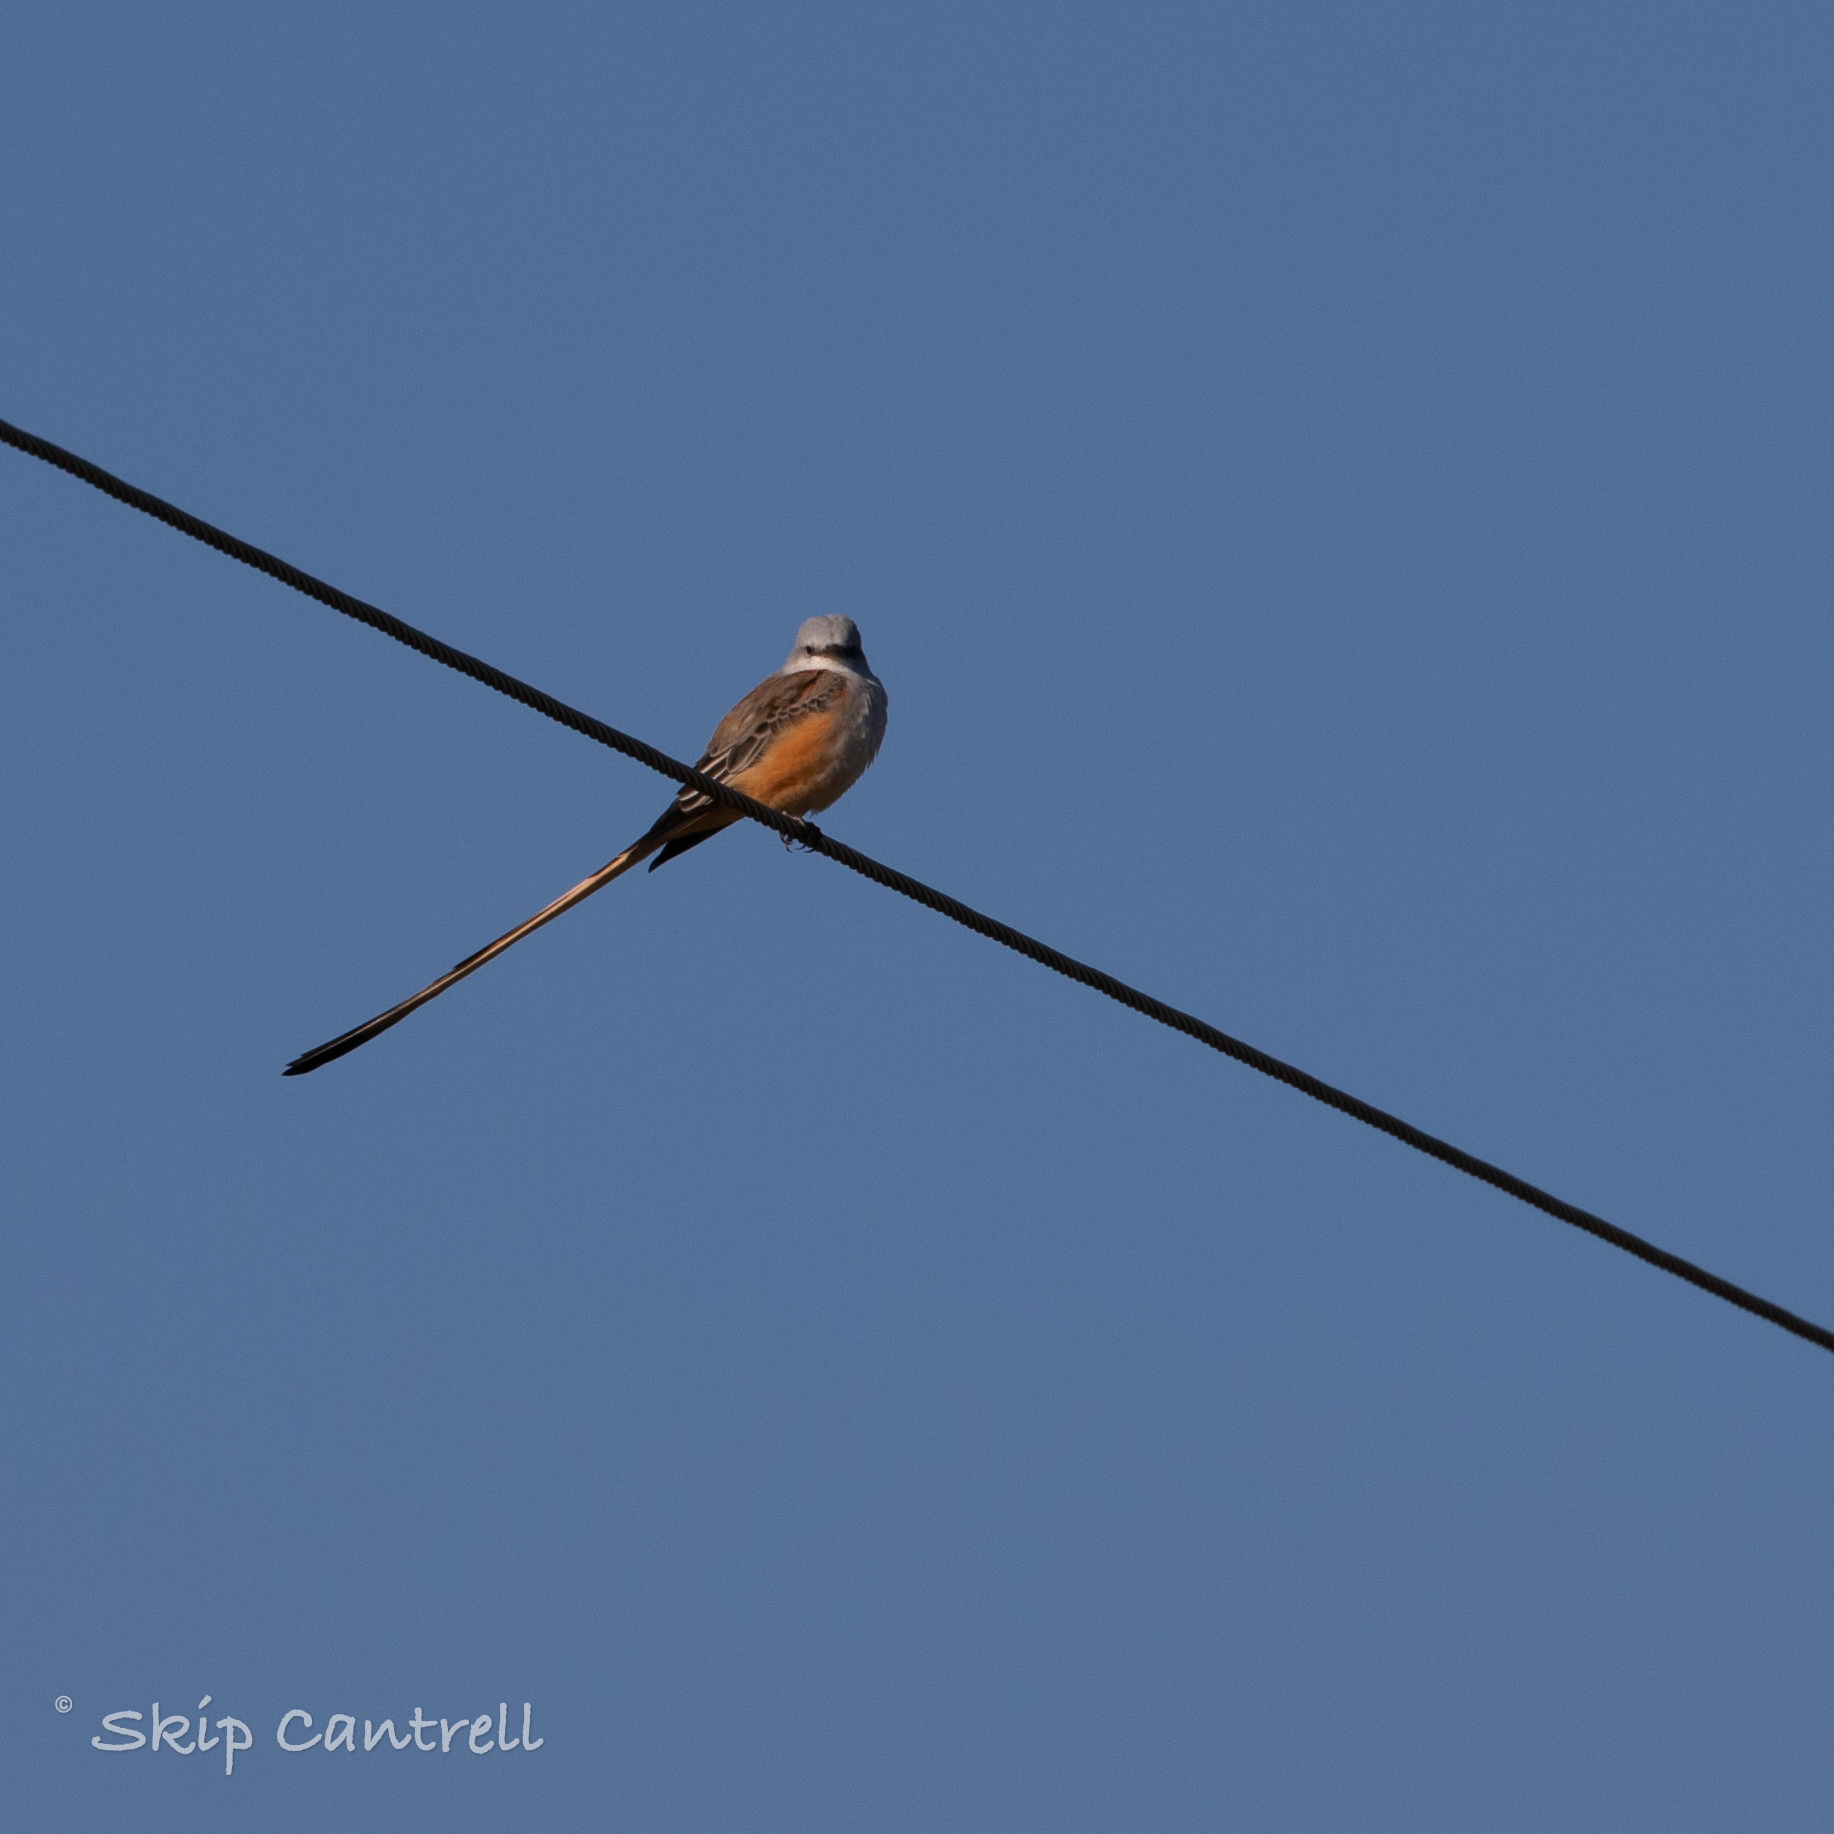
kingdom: Animalia
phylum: Chordata
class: Aves
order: Passeriformes
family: Tyrannidae
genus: Tyrannus
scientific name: Tyrannus forficatus
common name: Scissor-tailed flycatcher
